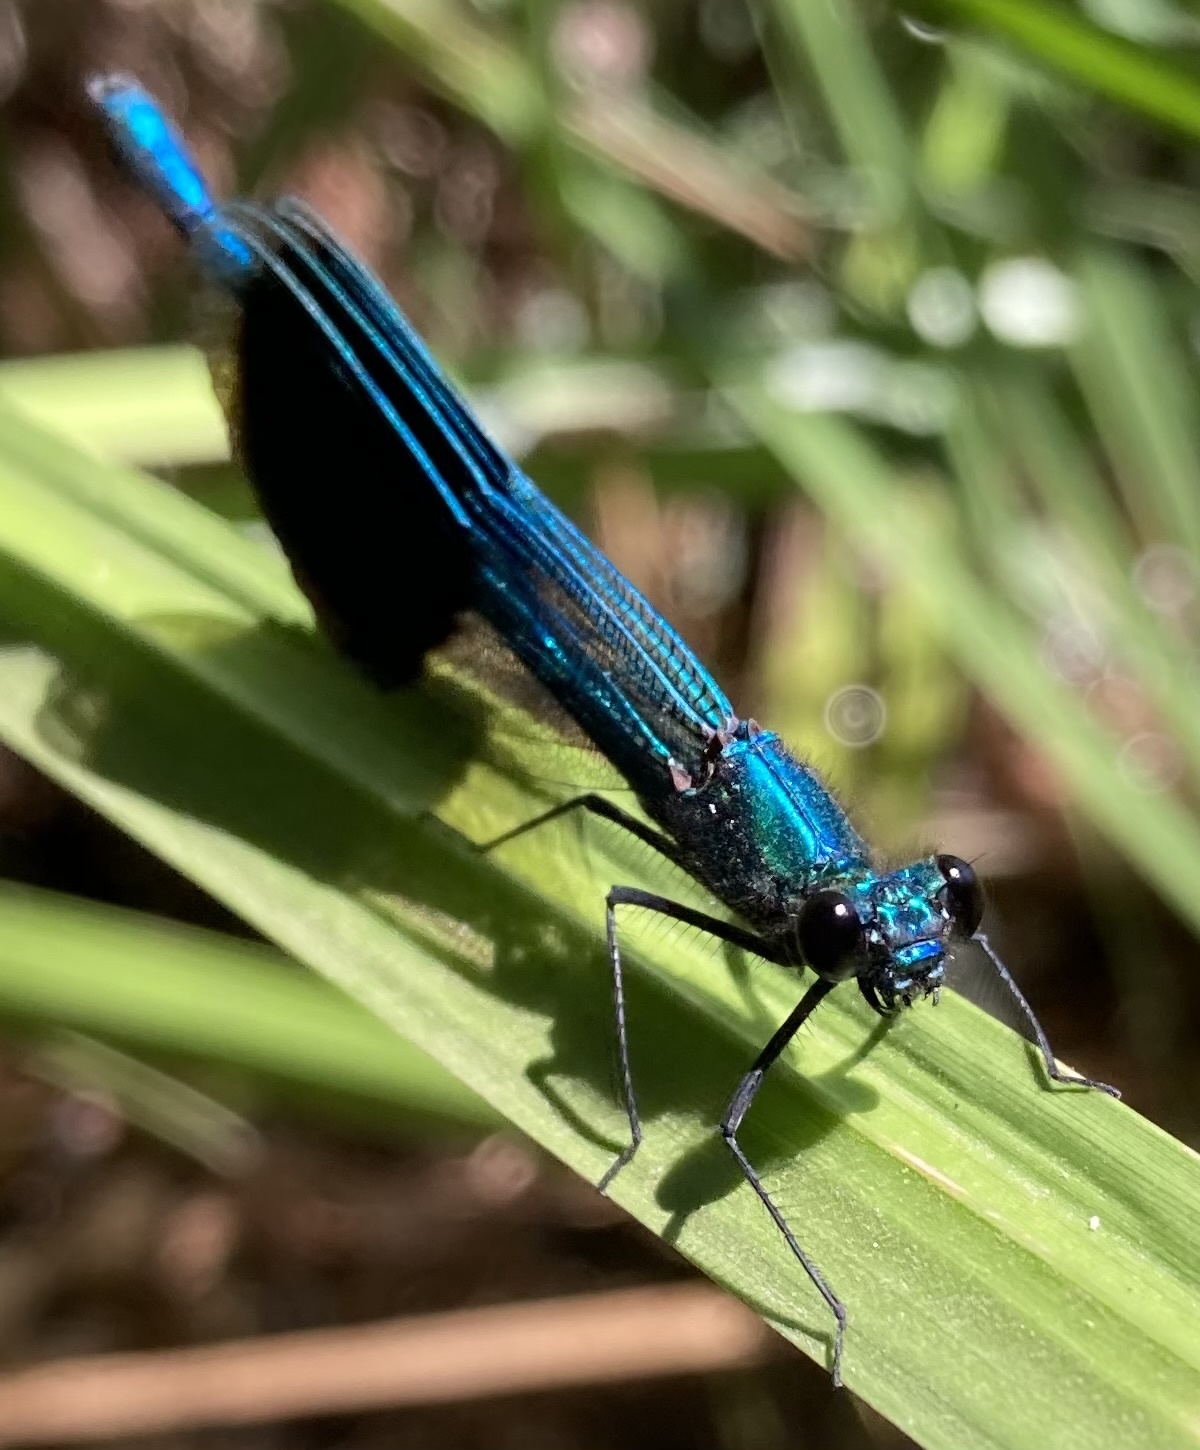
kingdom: Animalia
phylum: Arthropoda
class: Insecta
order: Odonata
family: Calopterygidae
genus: Calopteryx
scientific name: Calopteryx splendens
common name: Banded demoiselle
